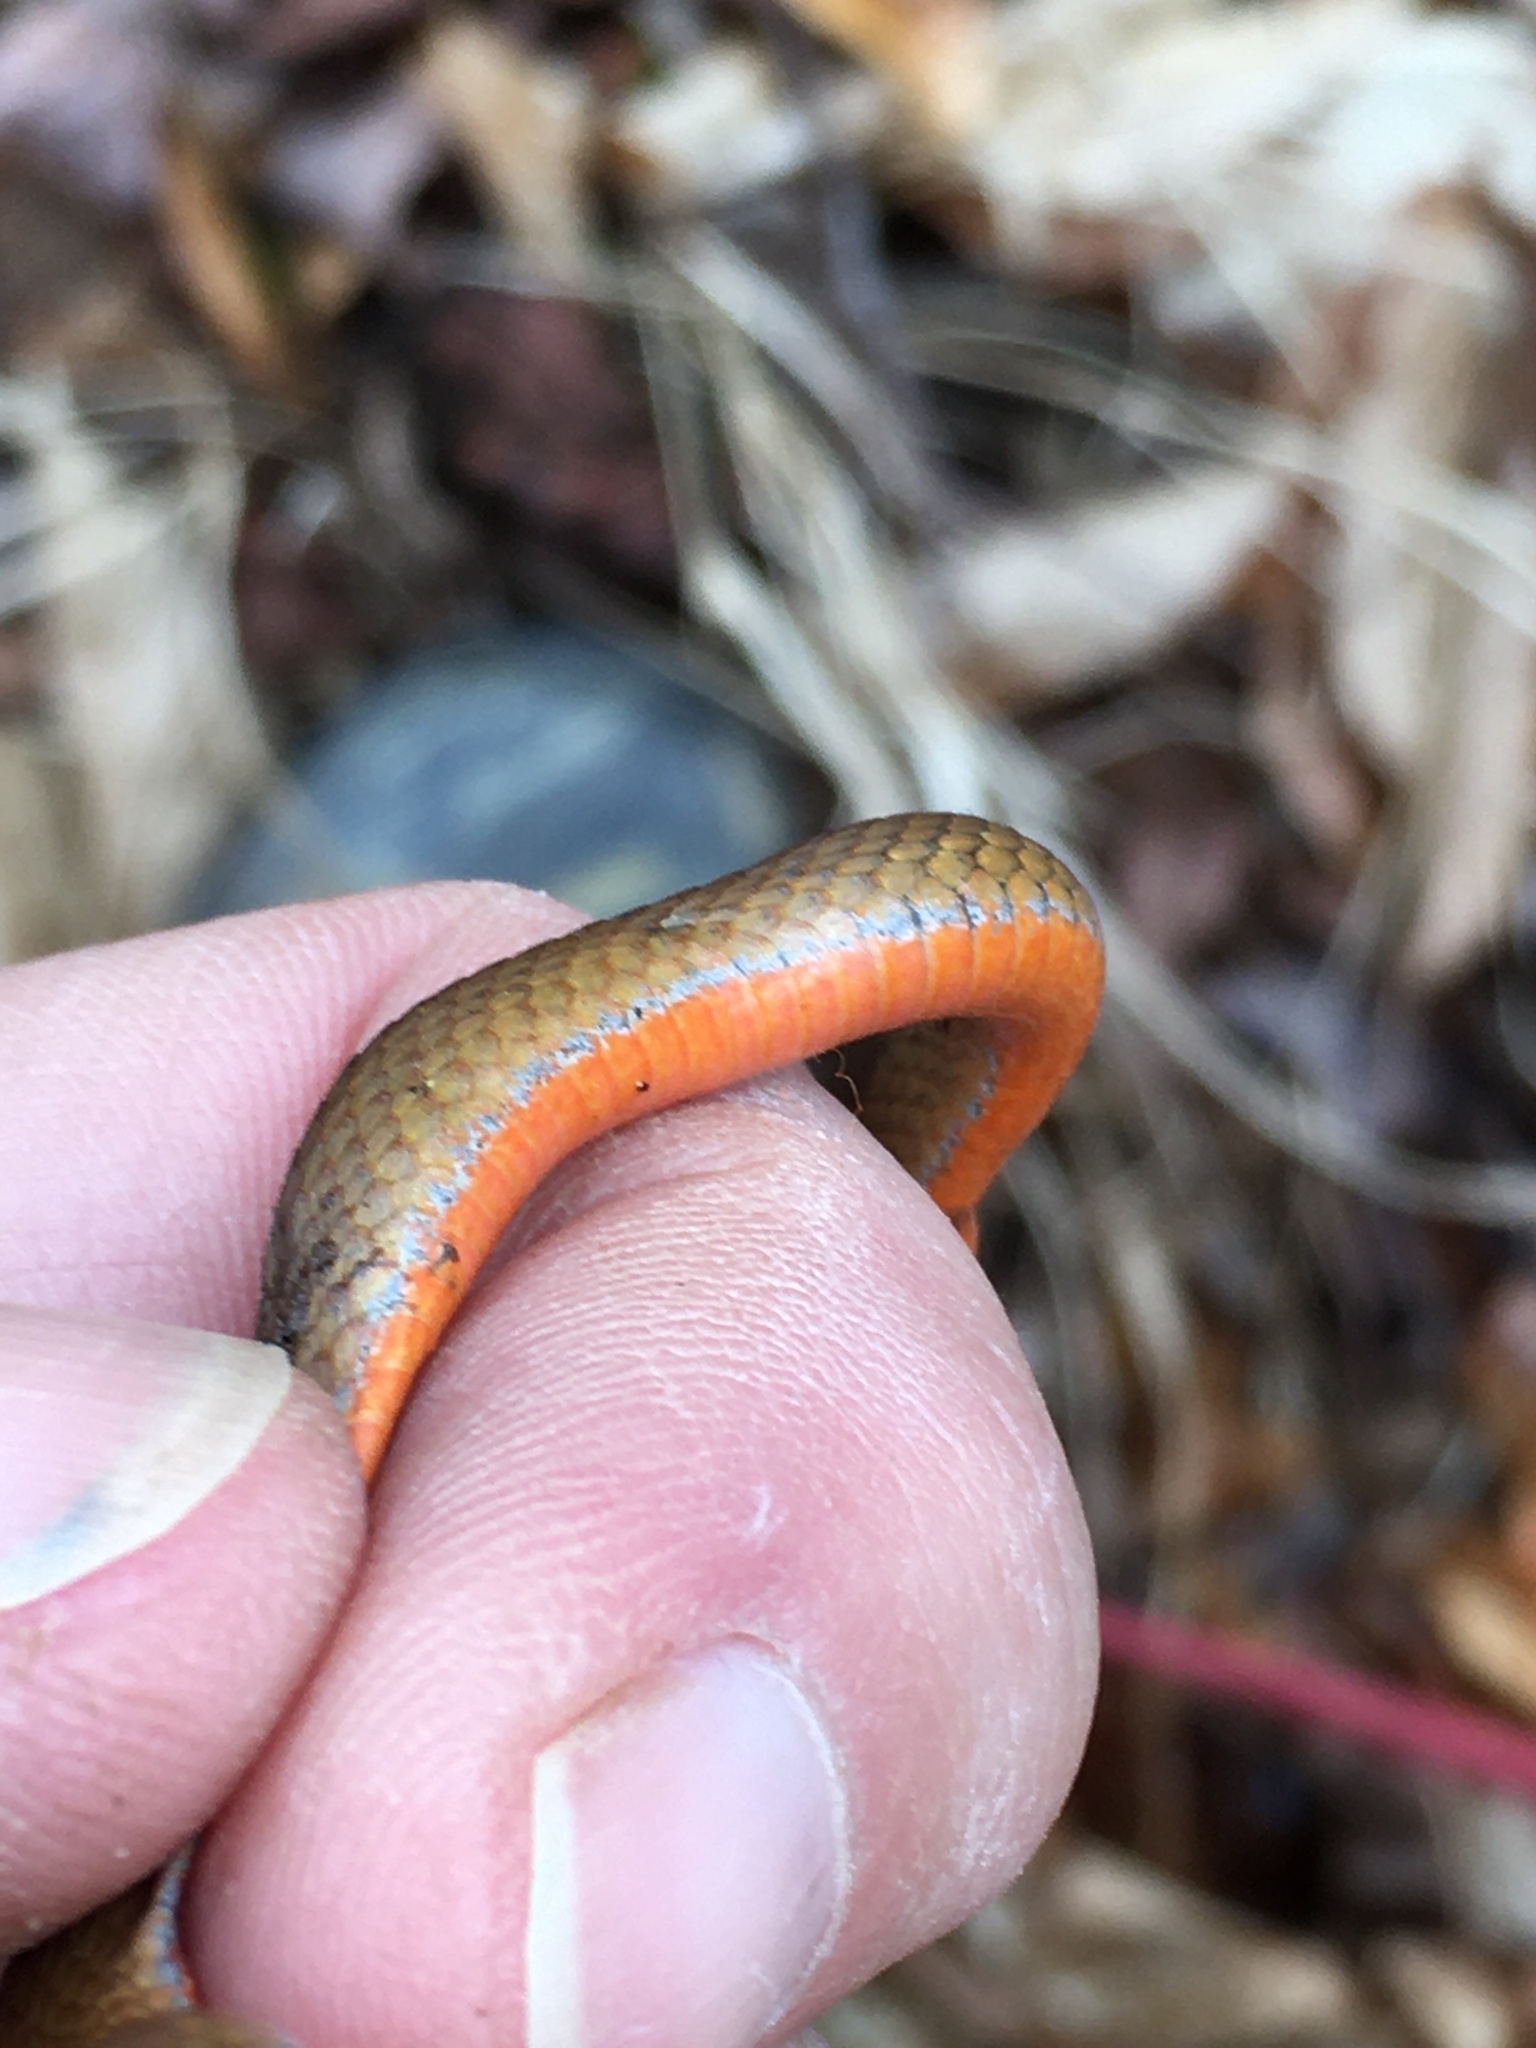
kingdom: Animalia
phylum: Chordata
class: Squamata
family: Colubridae
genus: Storeria
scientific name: Storeria occipitomaculata
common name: Redbelly snake
